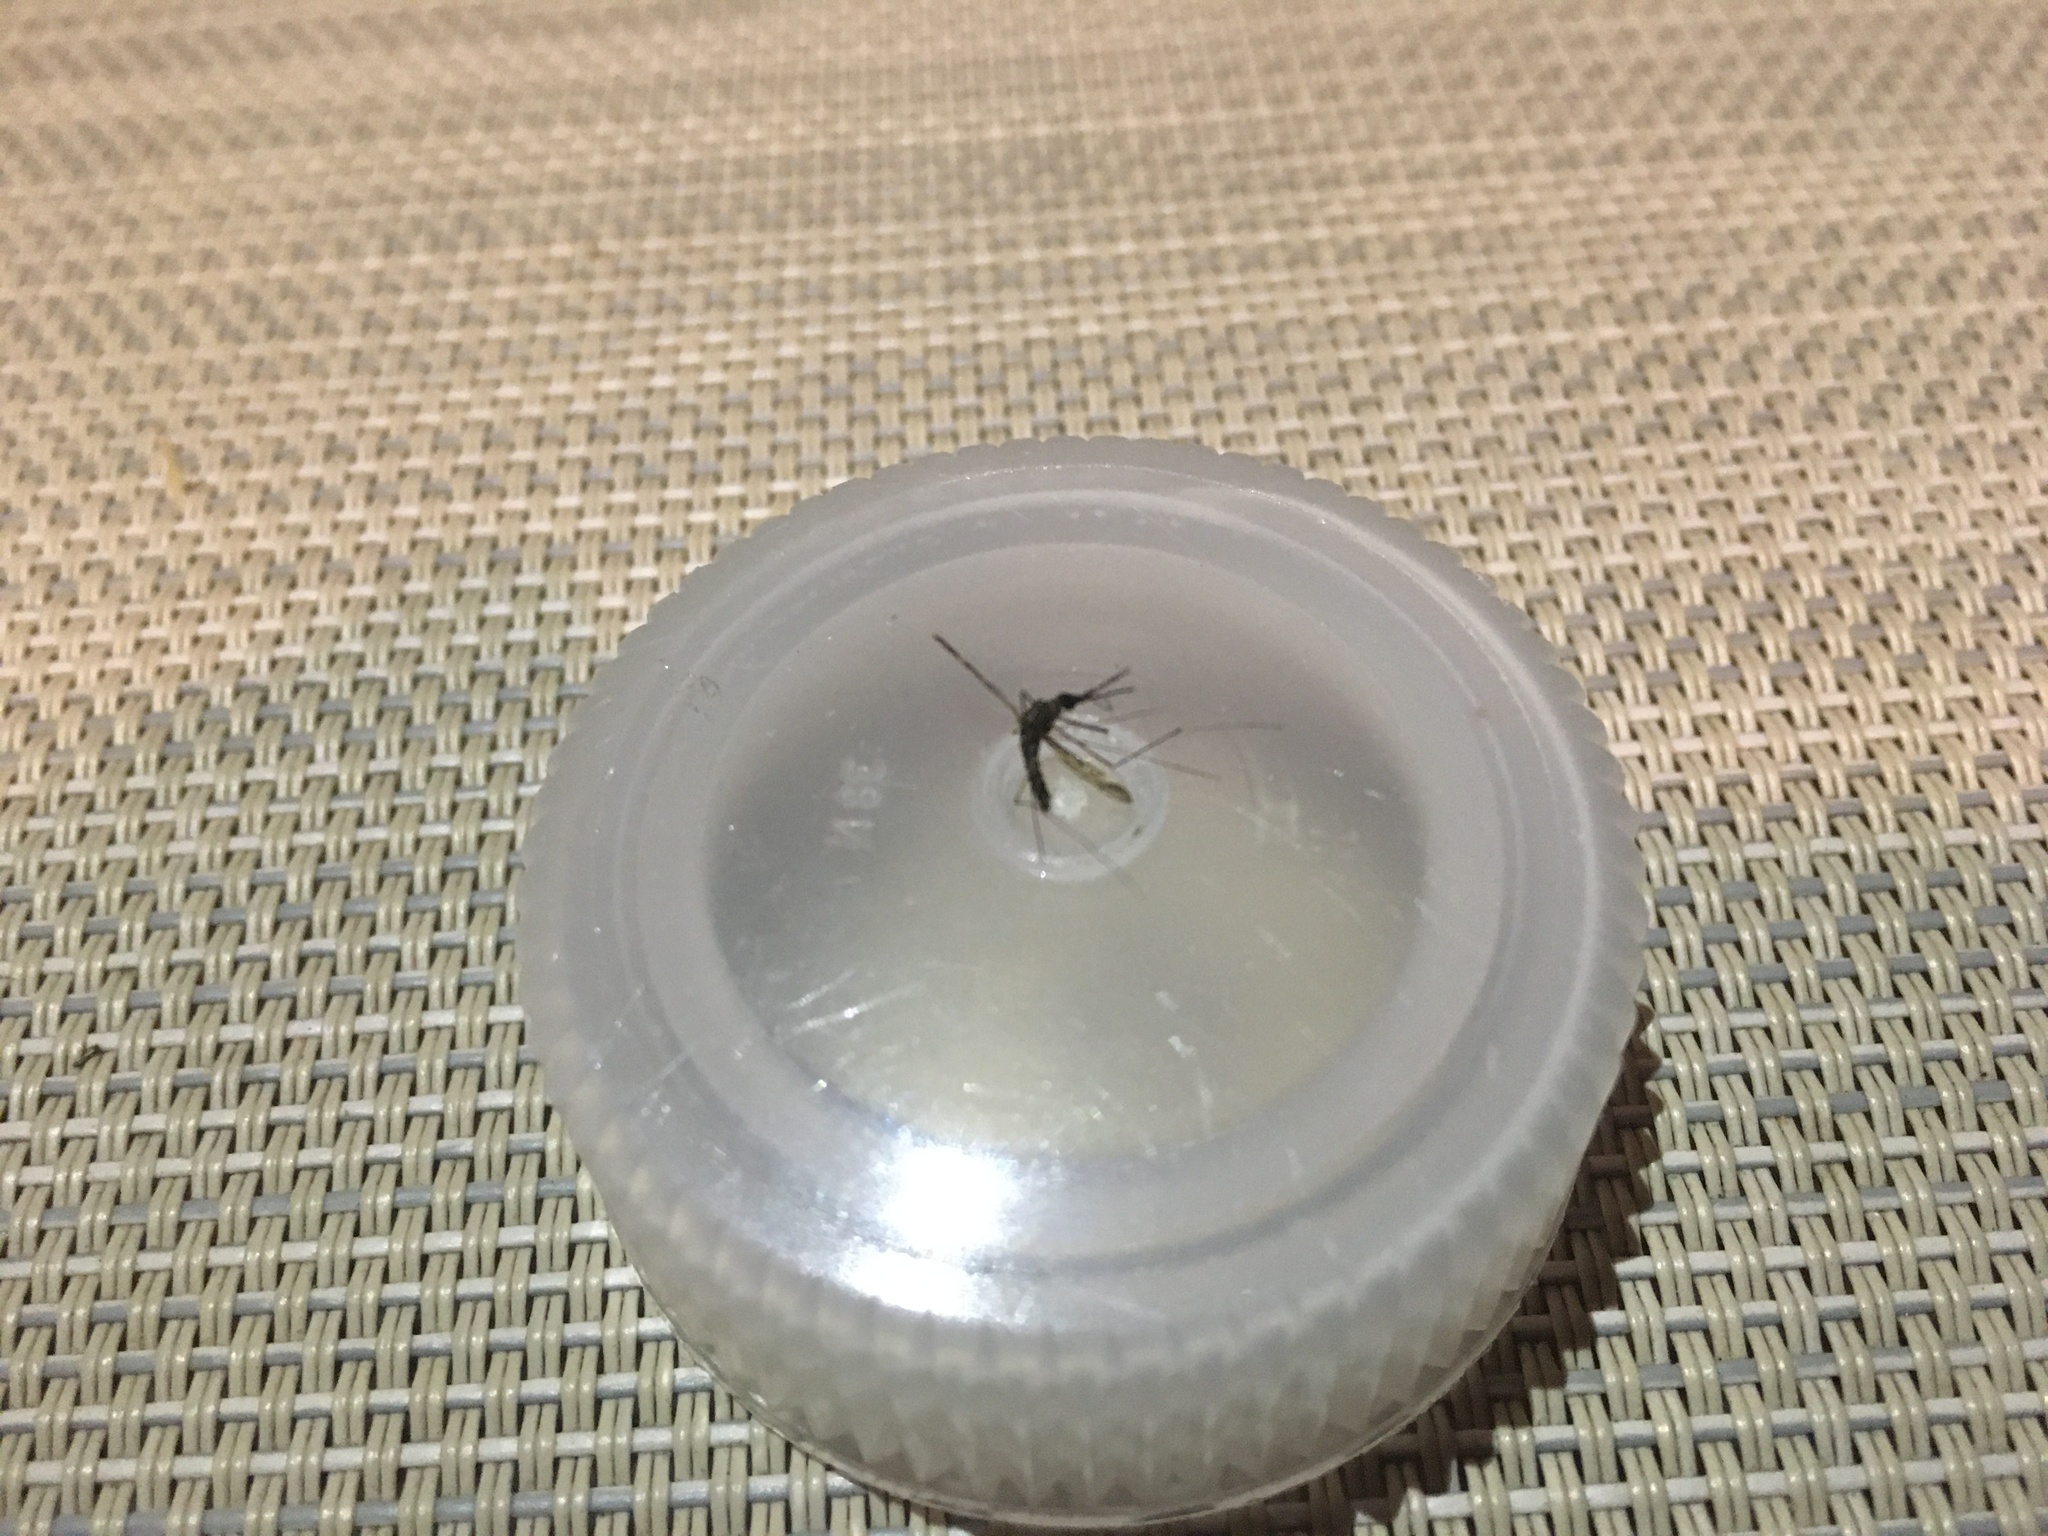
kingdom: Animalia
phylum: Arthropoda
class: Insecta
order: Diptera
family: Culicidae
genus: Anopheles
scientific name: Anopheles punctipennis
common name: Woodland malaria mosquito
